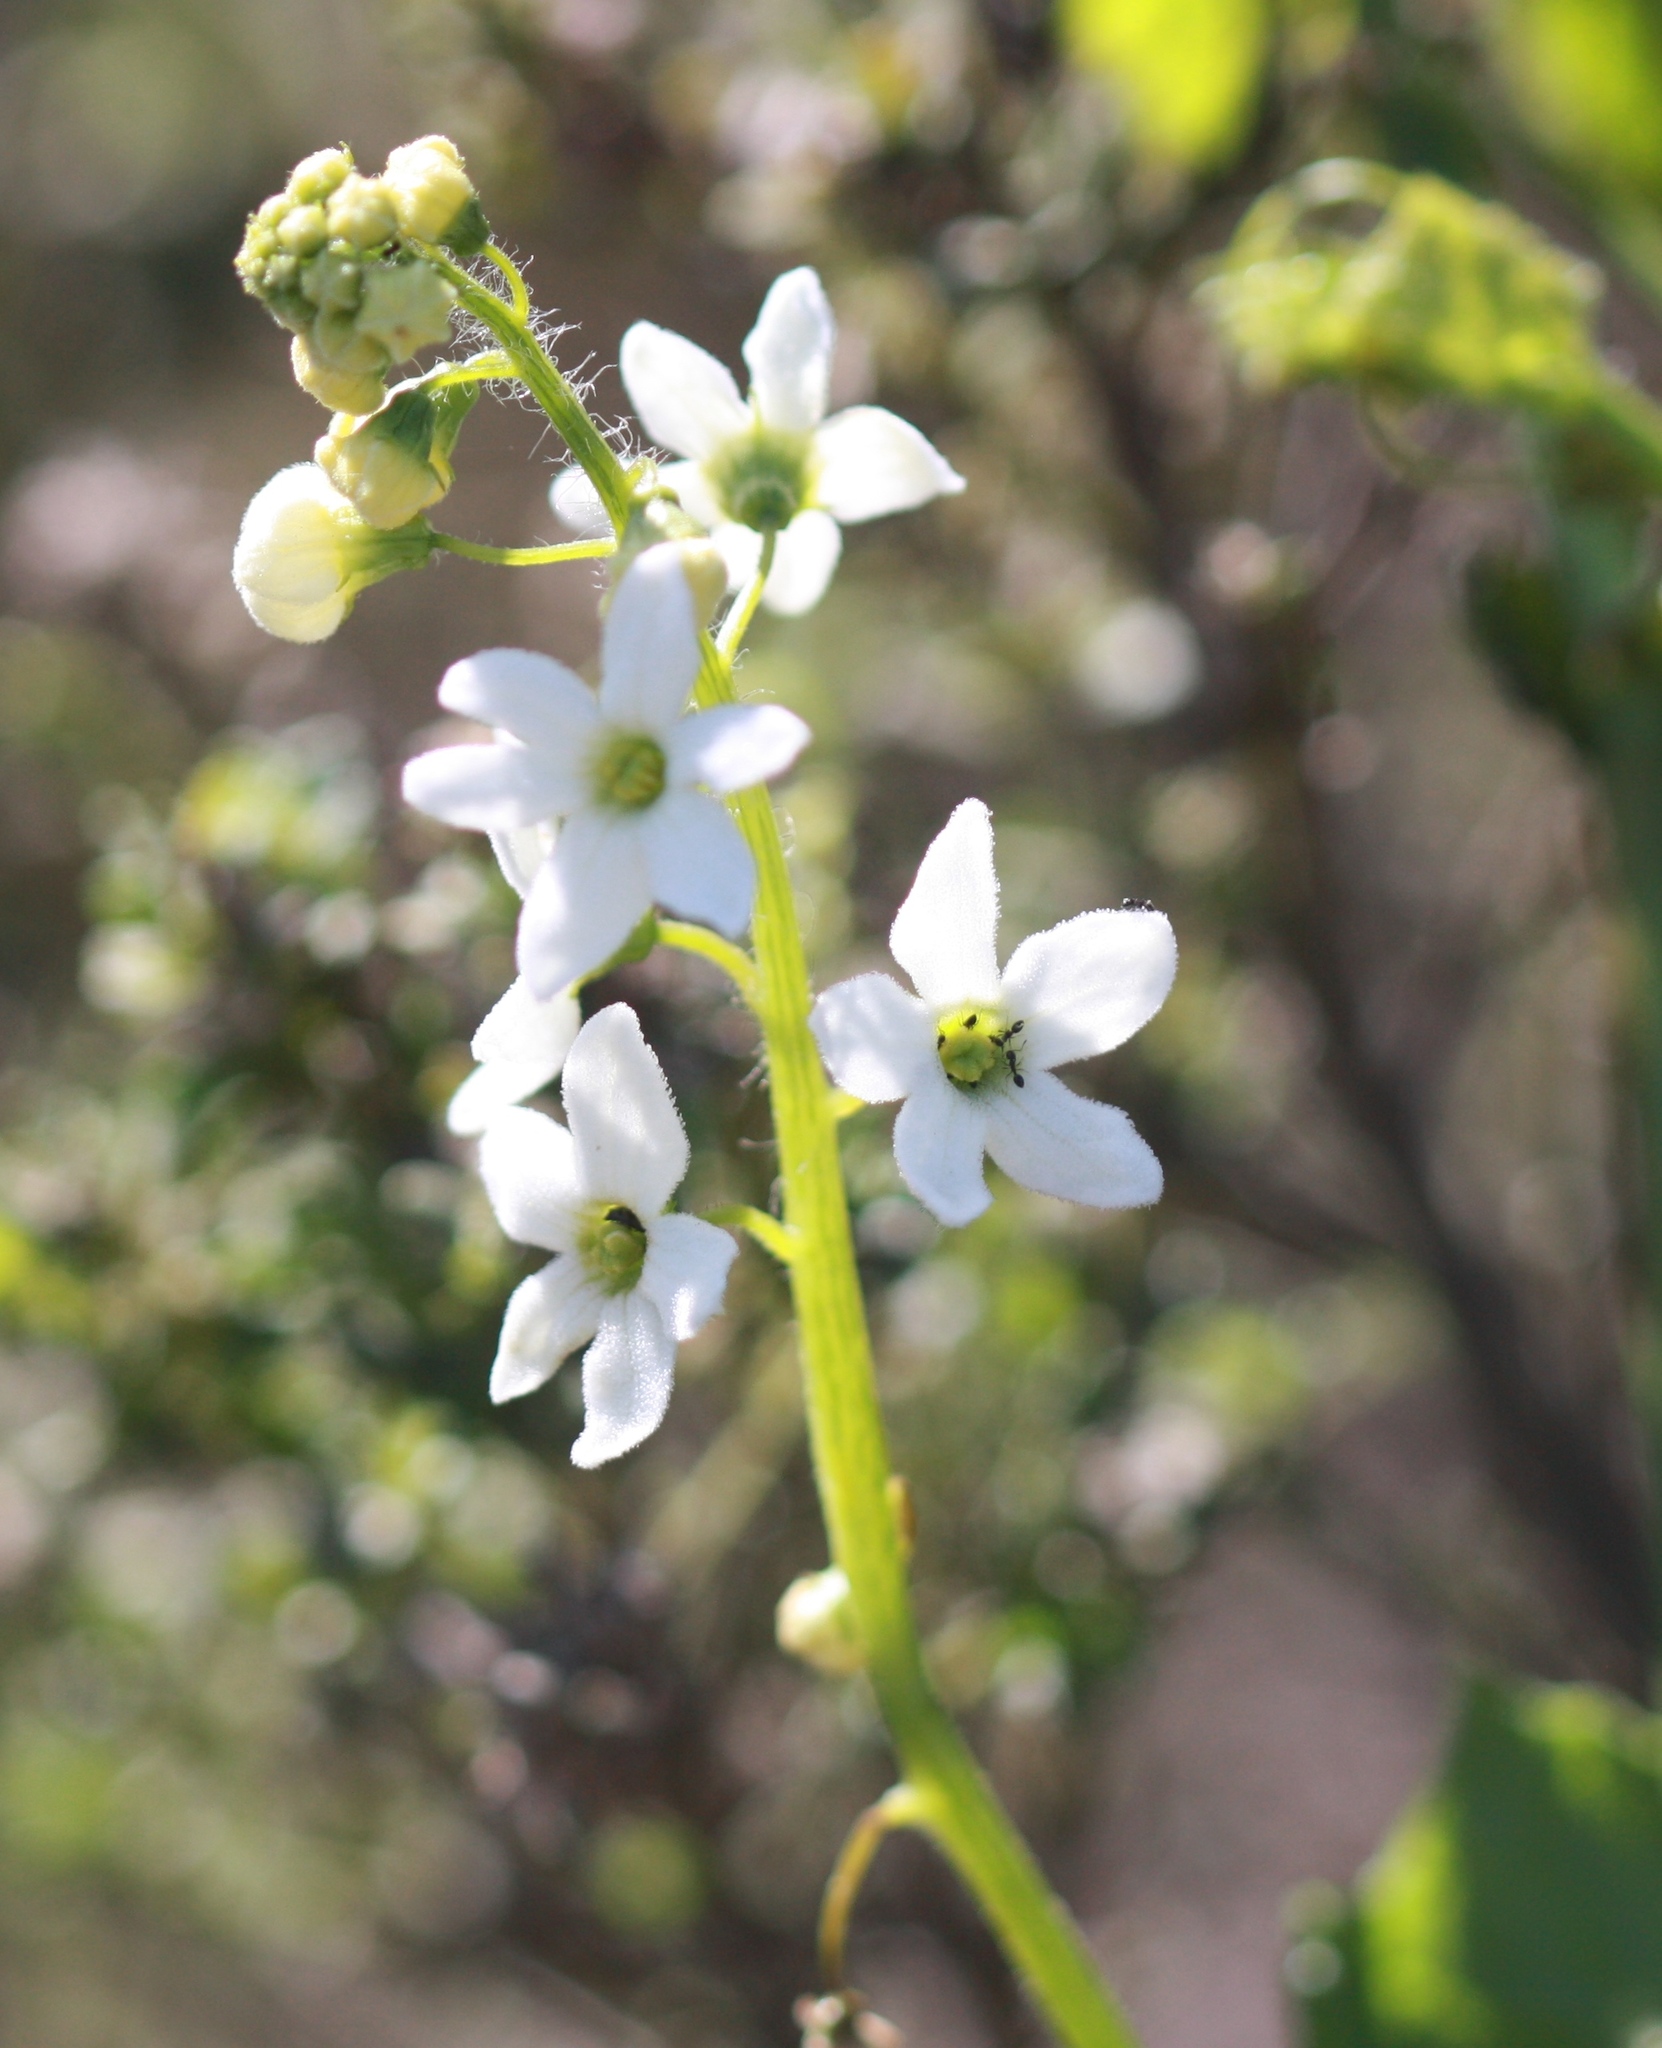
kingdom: Plantae
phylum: Tracheophyta
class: Magnoliopsida
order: Cucurbitales
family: Cucurbitaceae
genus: Marah
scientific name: Marah oregana
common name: Coastal manroot
